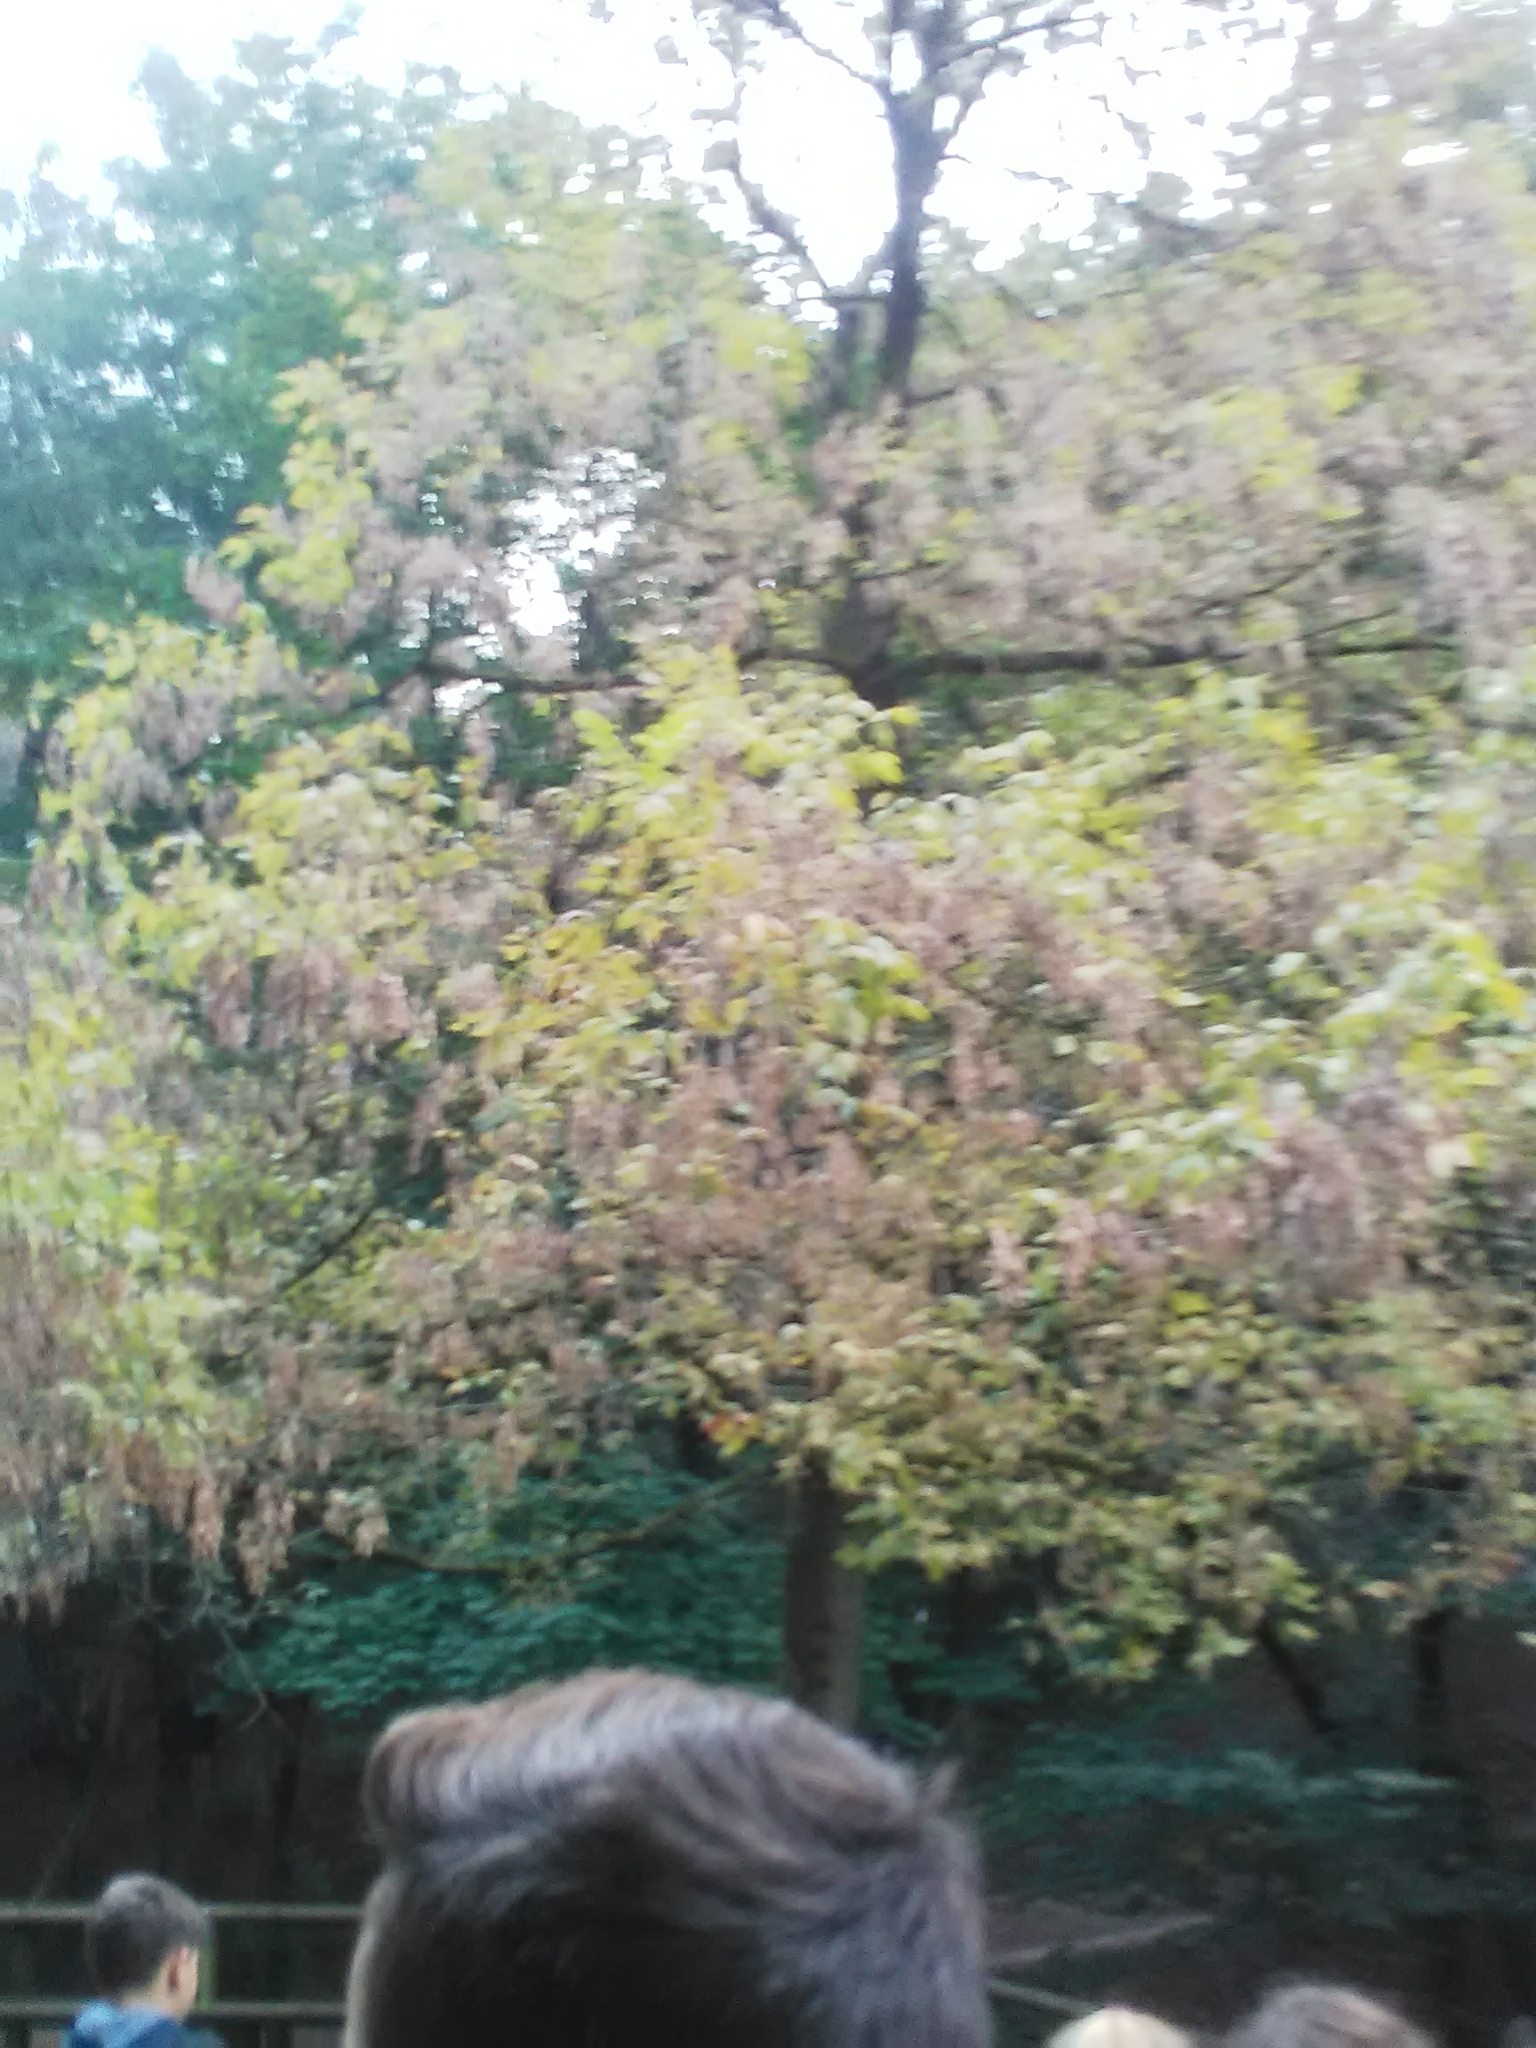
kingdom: Plantae
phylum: Tracheophyta
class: Magnoliopsida
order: Sapindales
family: Sapindaceae
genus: Acer
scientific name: Acer negundo
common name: Ashleaf maple
